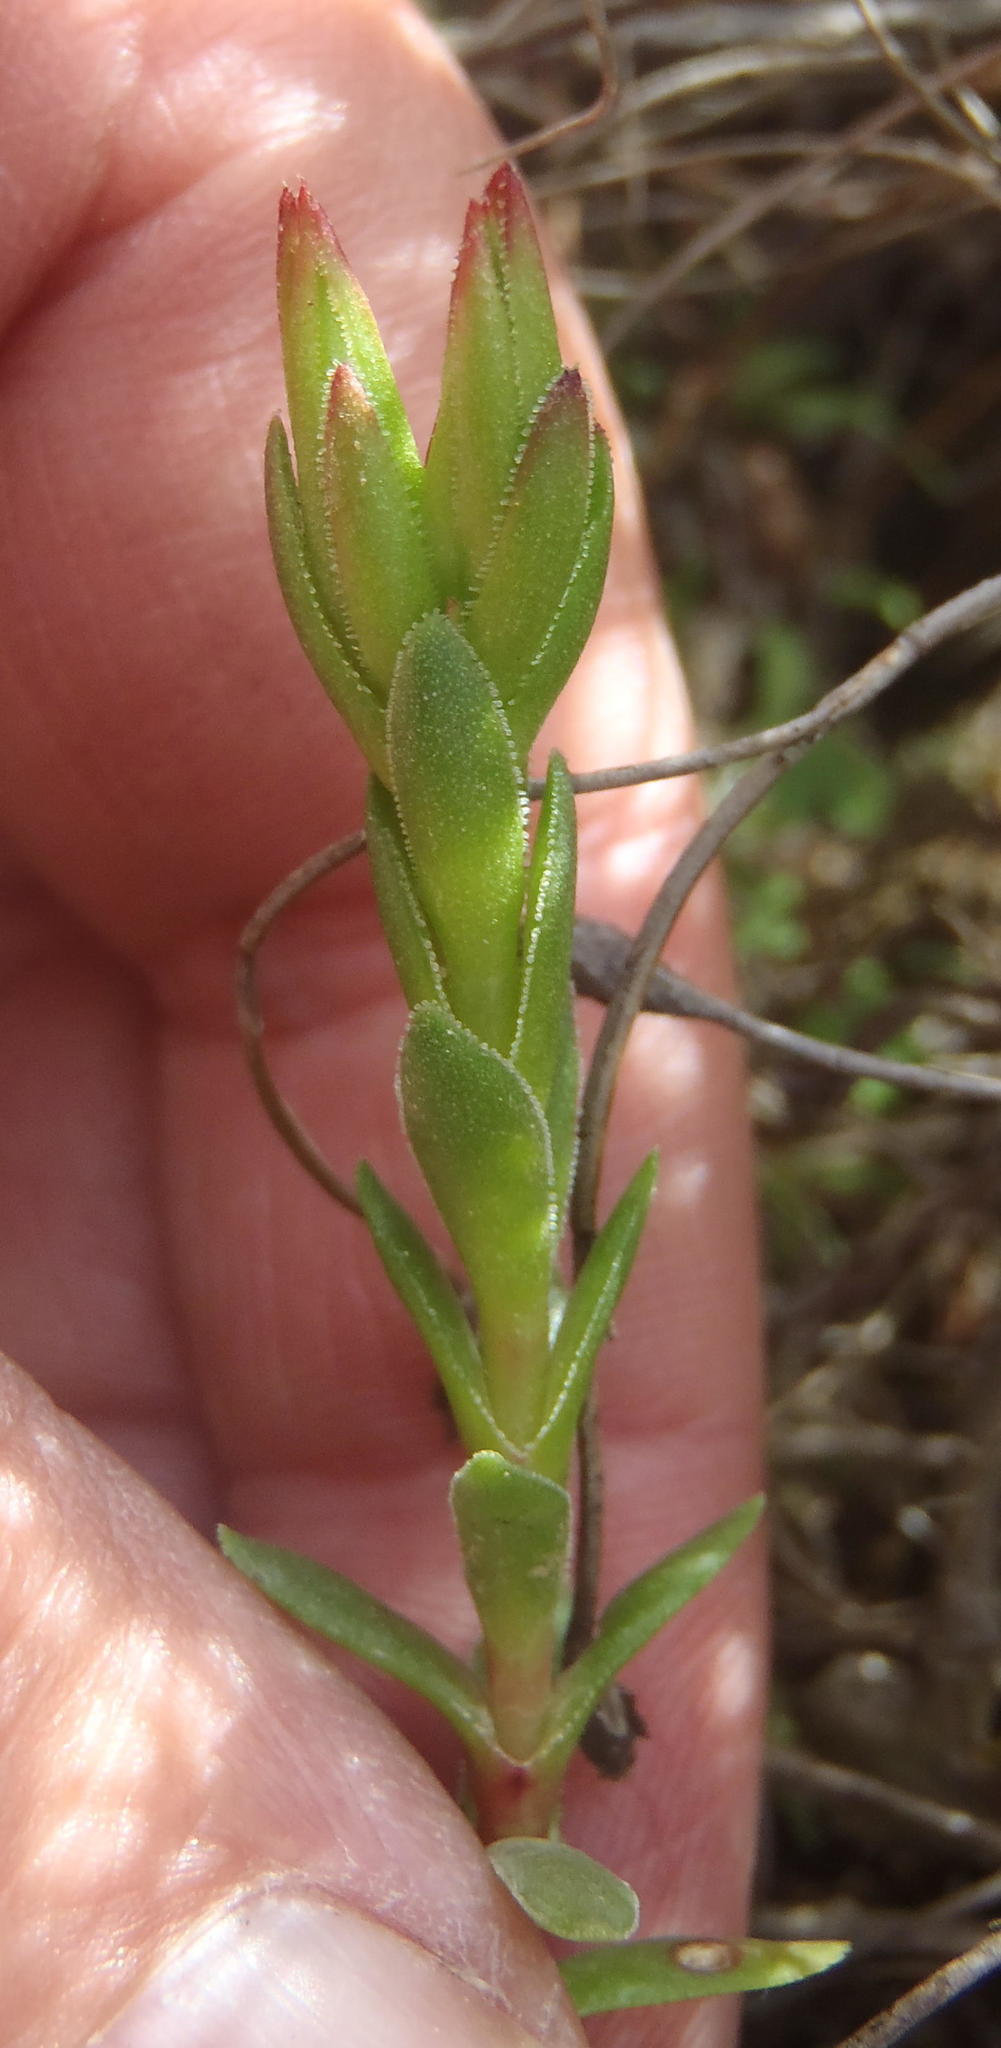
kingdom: Plantae
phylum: Tracheophyta
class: Magnoliopsida
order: Saxifragales
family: Crassulaceae
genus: Crassula
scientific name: Crassula obtusa
